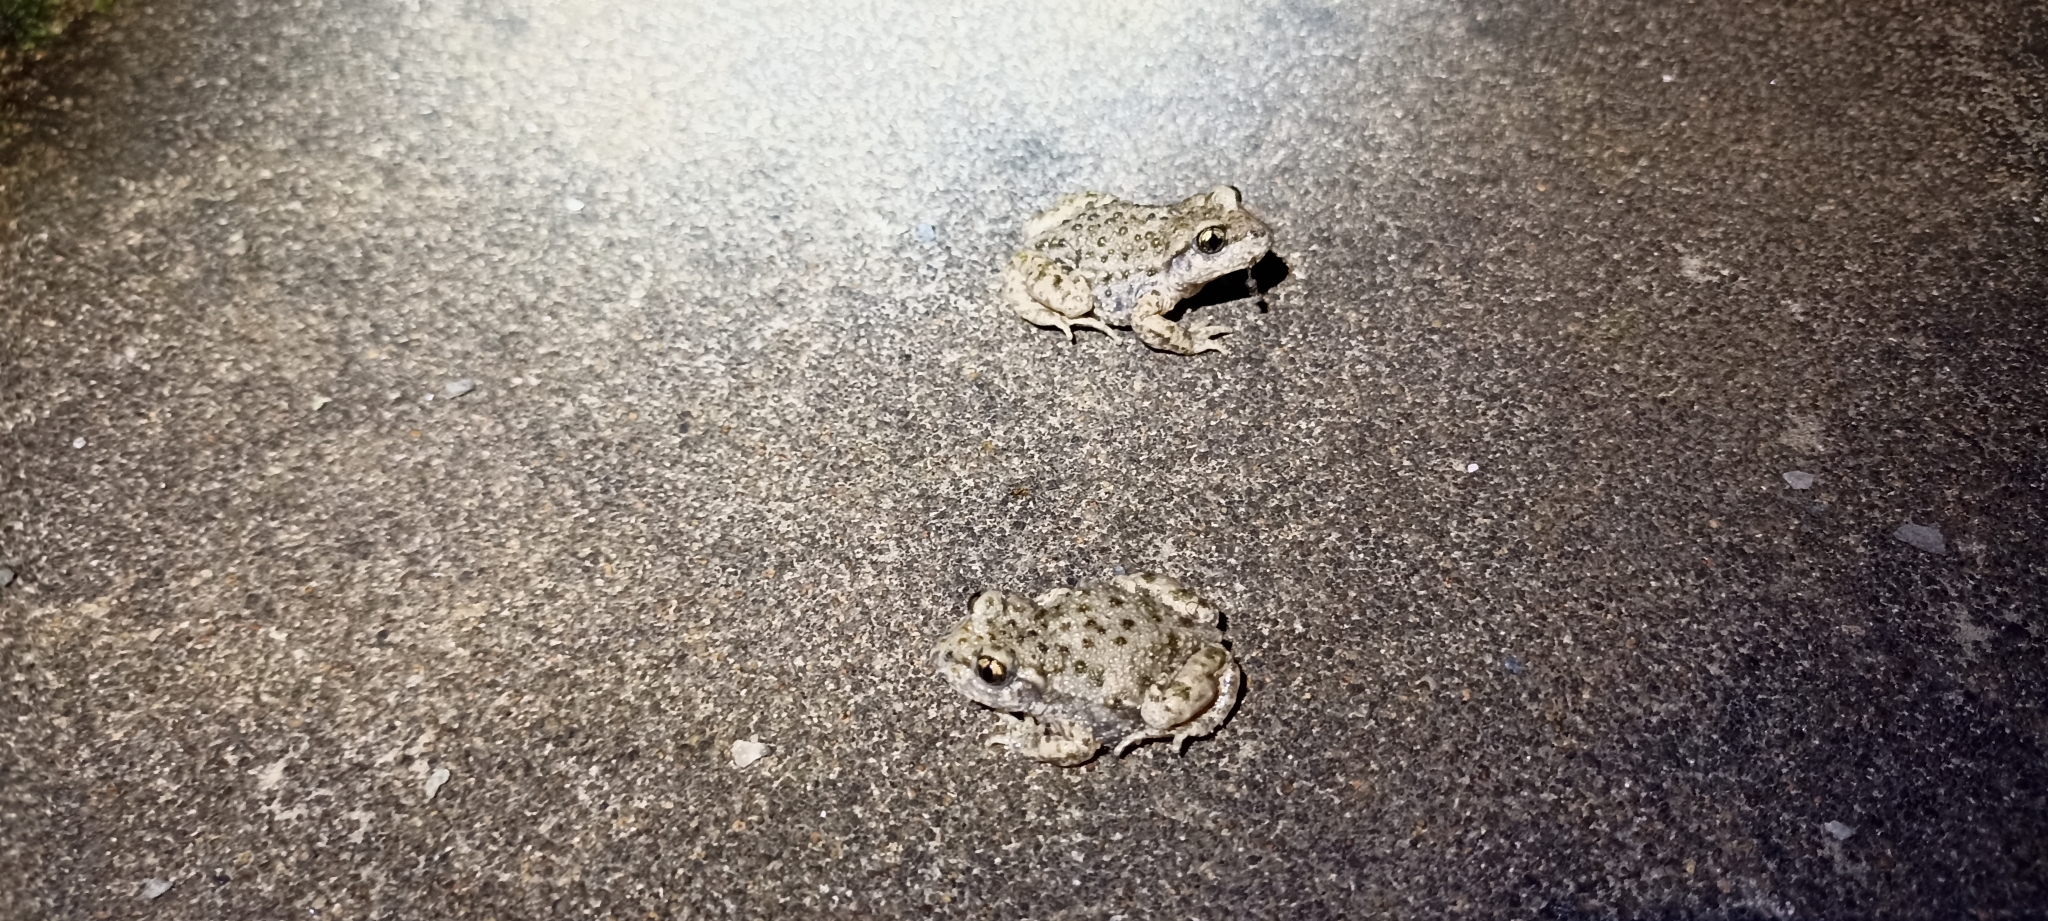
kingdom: Animalia
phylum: Chordata
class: Amphibia
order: Anura
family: Alytidae
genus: Alytes
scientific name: Alytes obstetricans
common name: Midwife toad
